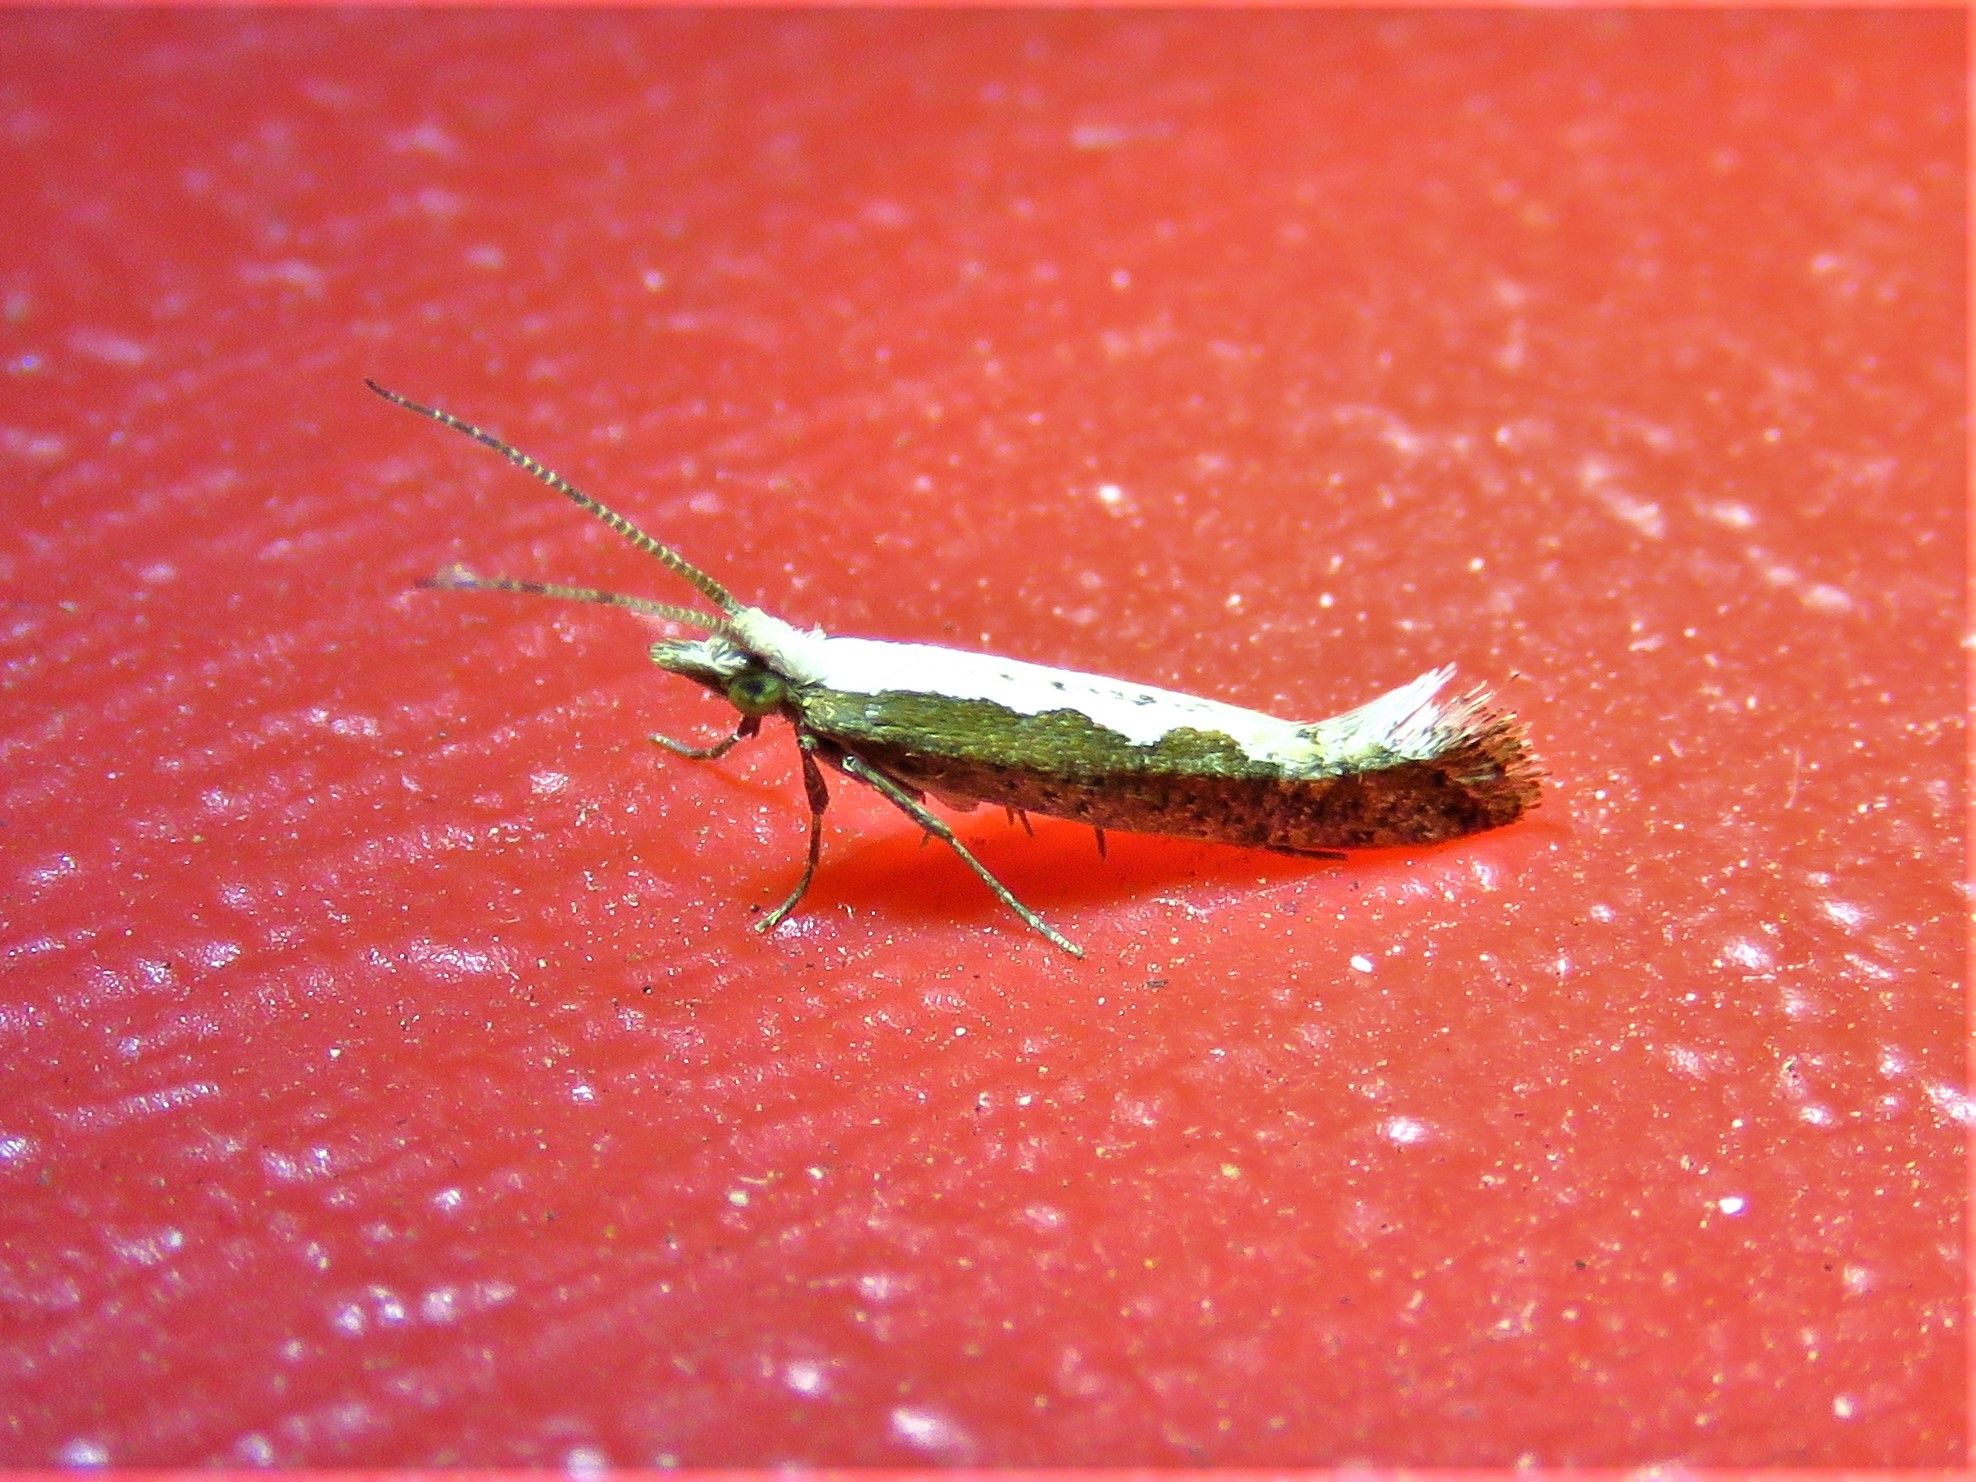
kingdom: Animalia
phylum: Arthropoda
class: Insecta
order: Lepidoptera
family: Plutellidae
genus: Plutella
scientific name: Plutella xylostella
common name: Diamond-back moth
